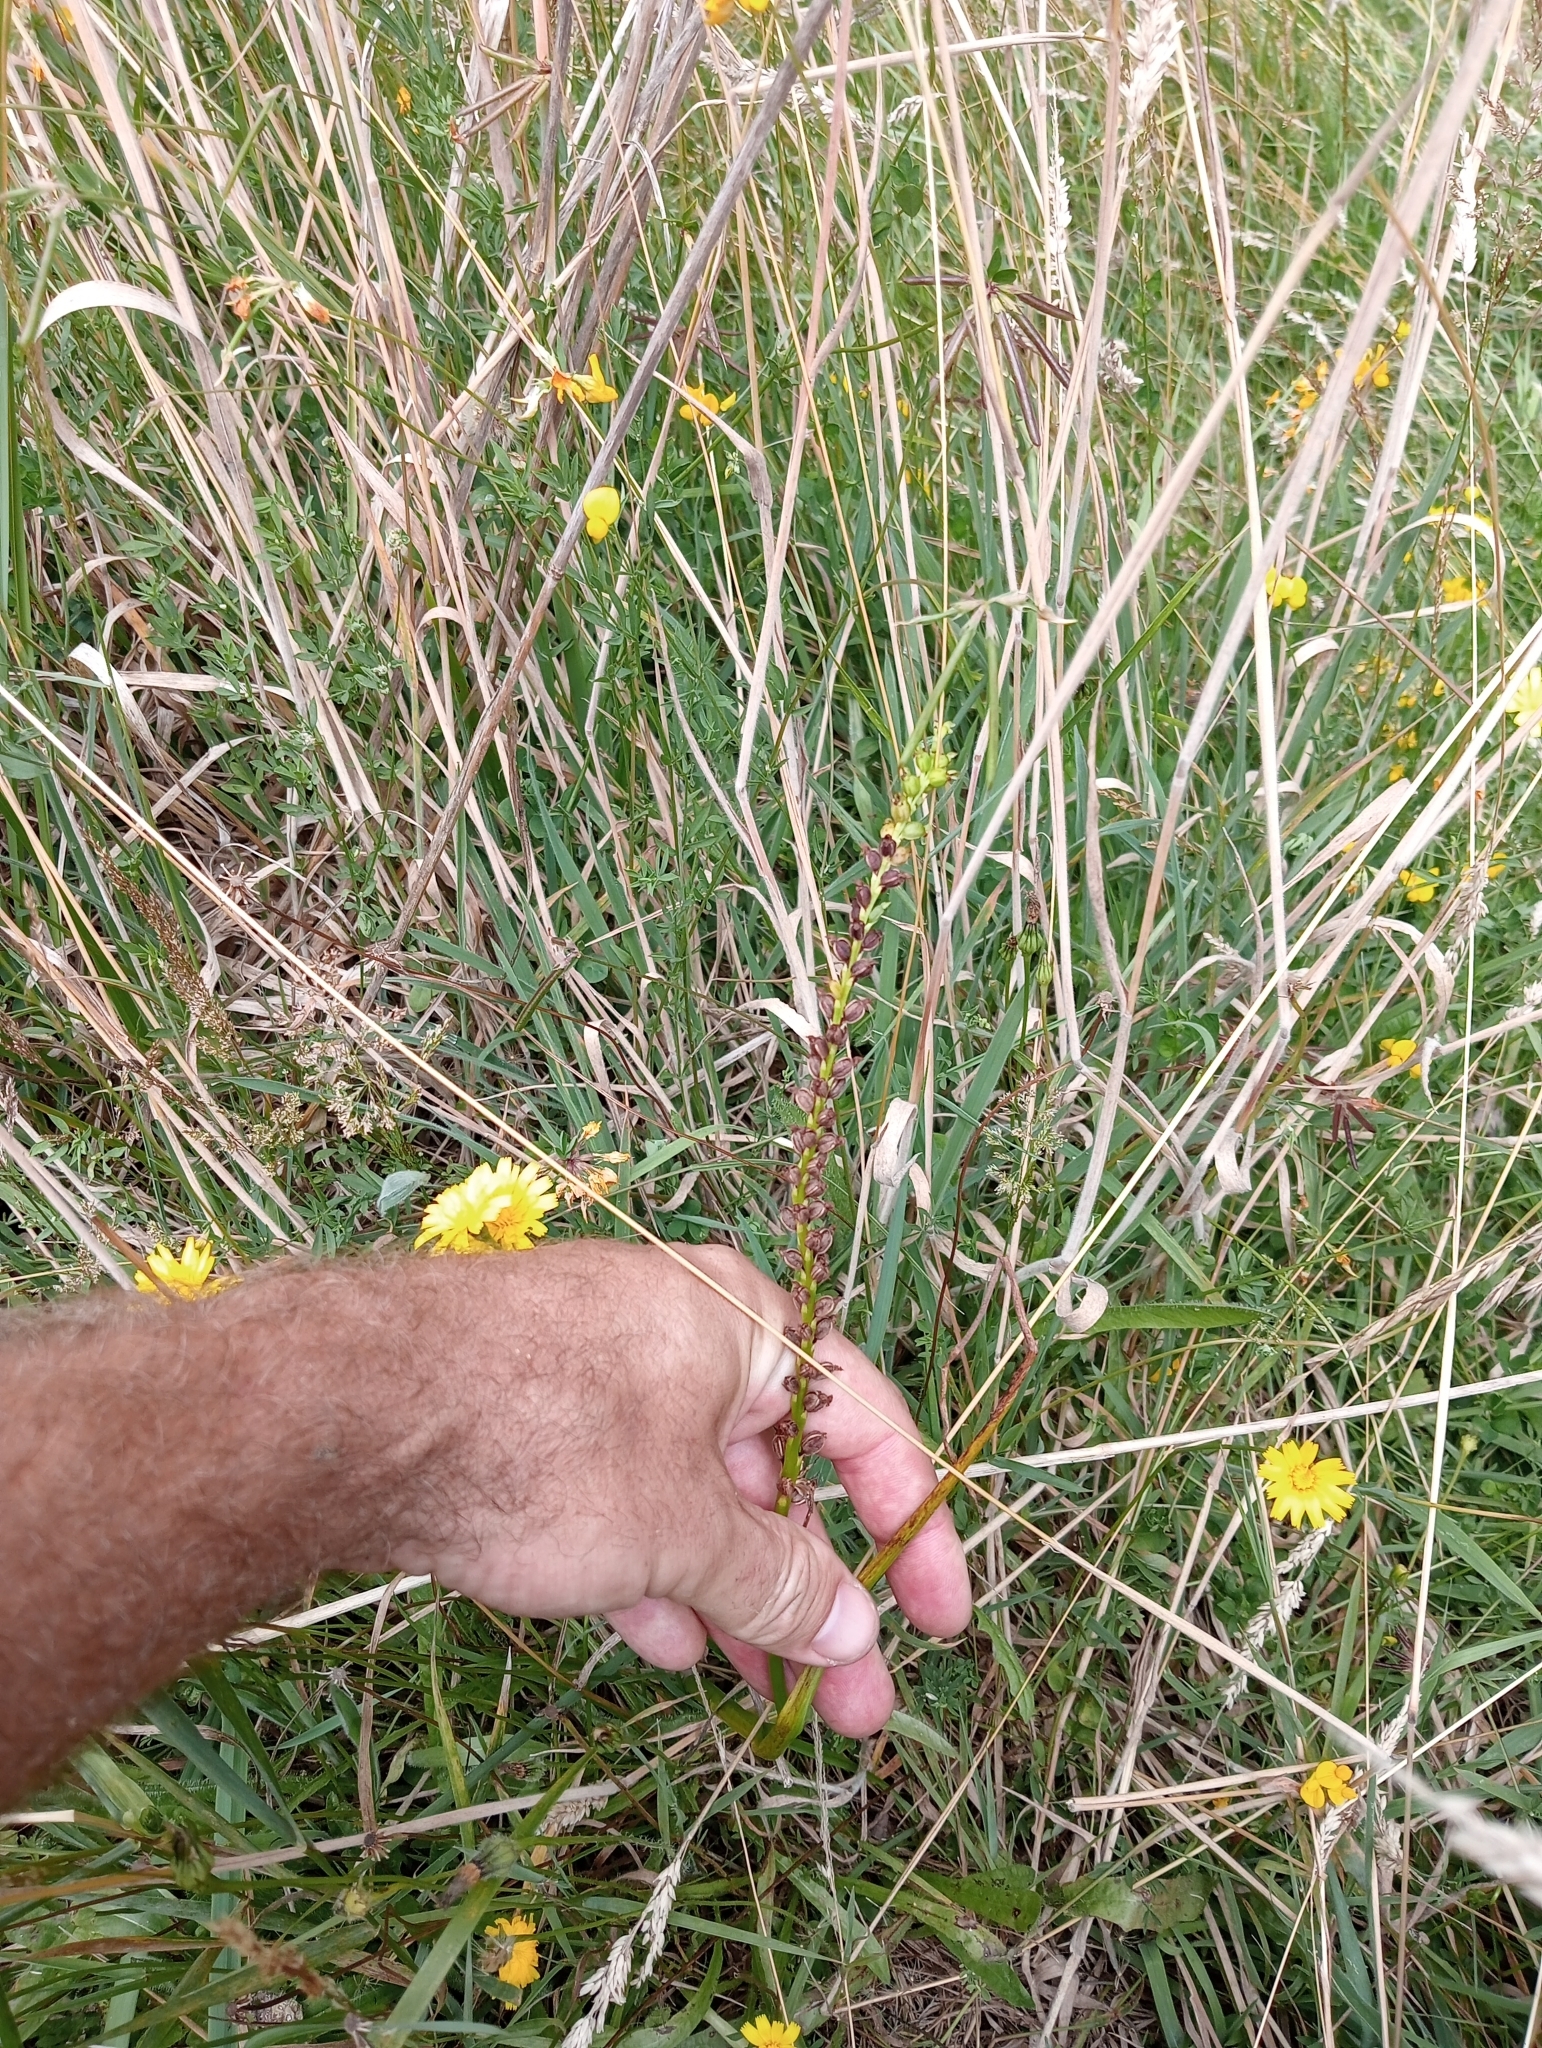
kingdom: Plantae
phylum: Tracheophyta
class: Liliopsida
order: Asparagales
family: Orchidaceae
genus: Microtis
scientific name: Microtis unifolia
